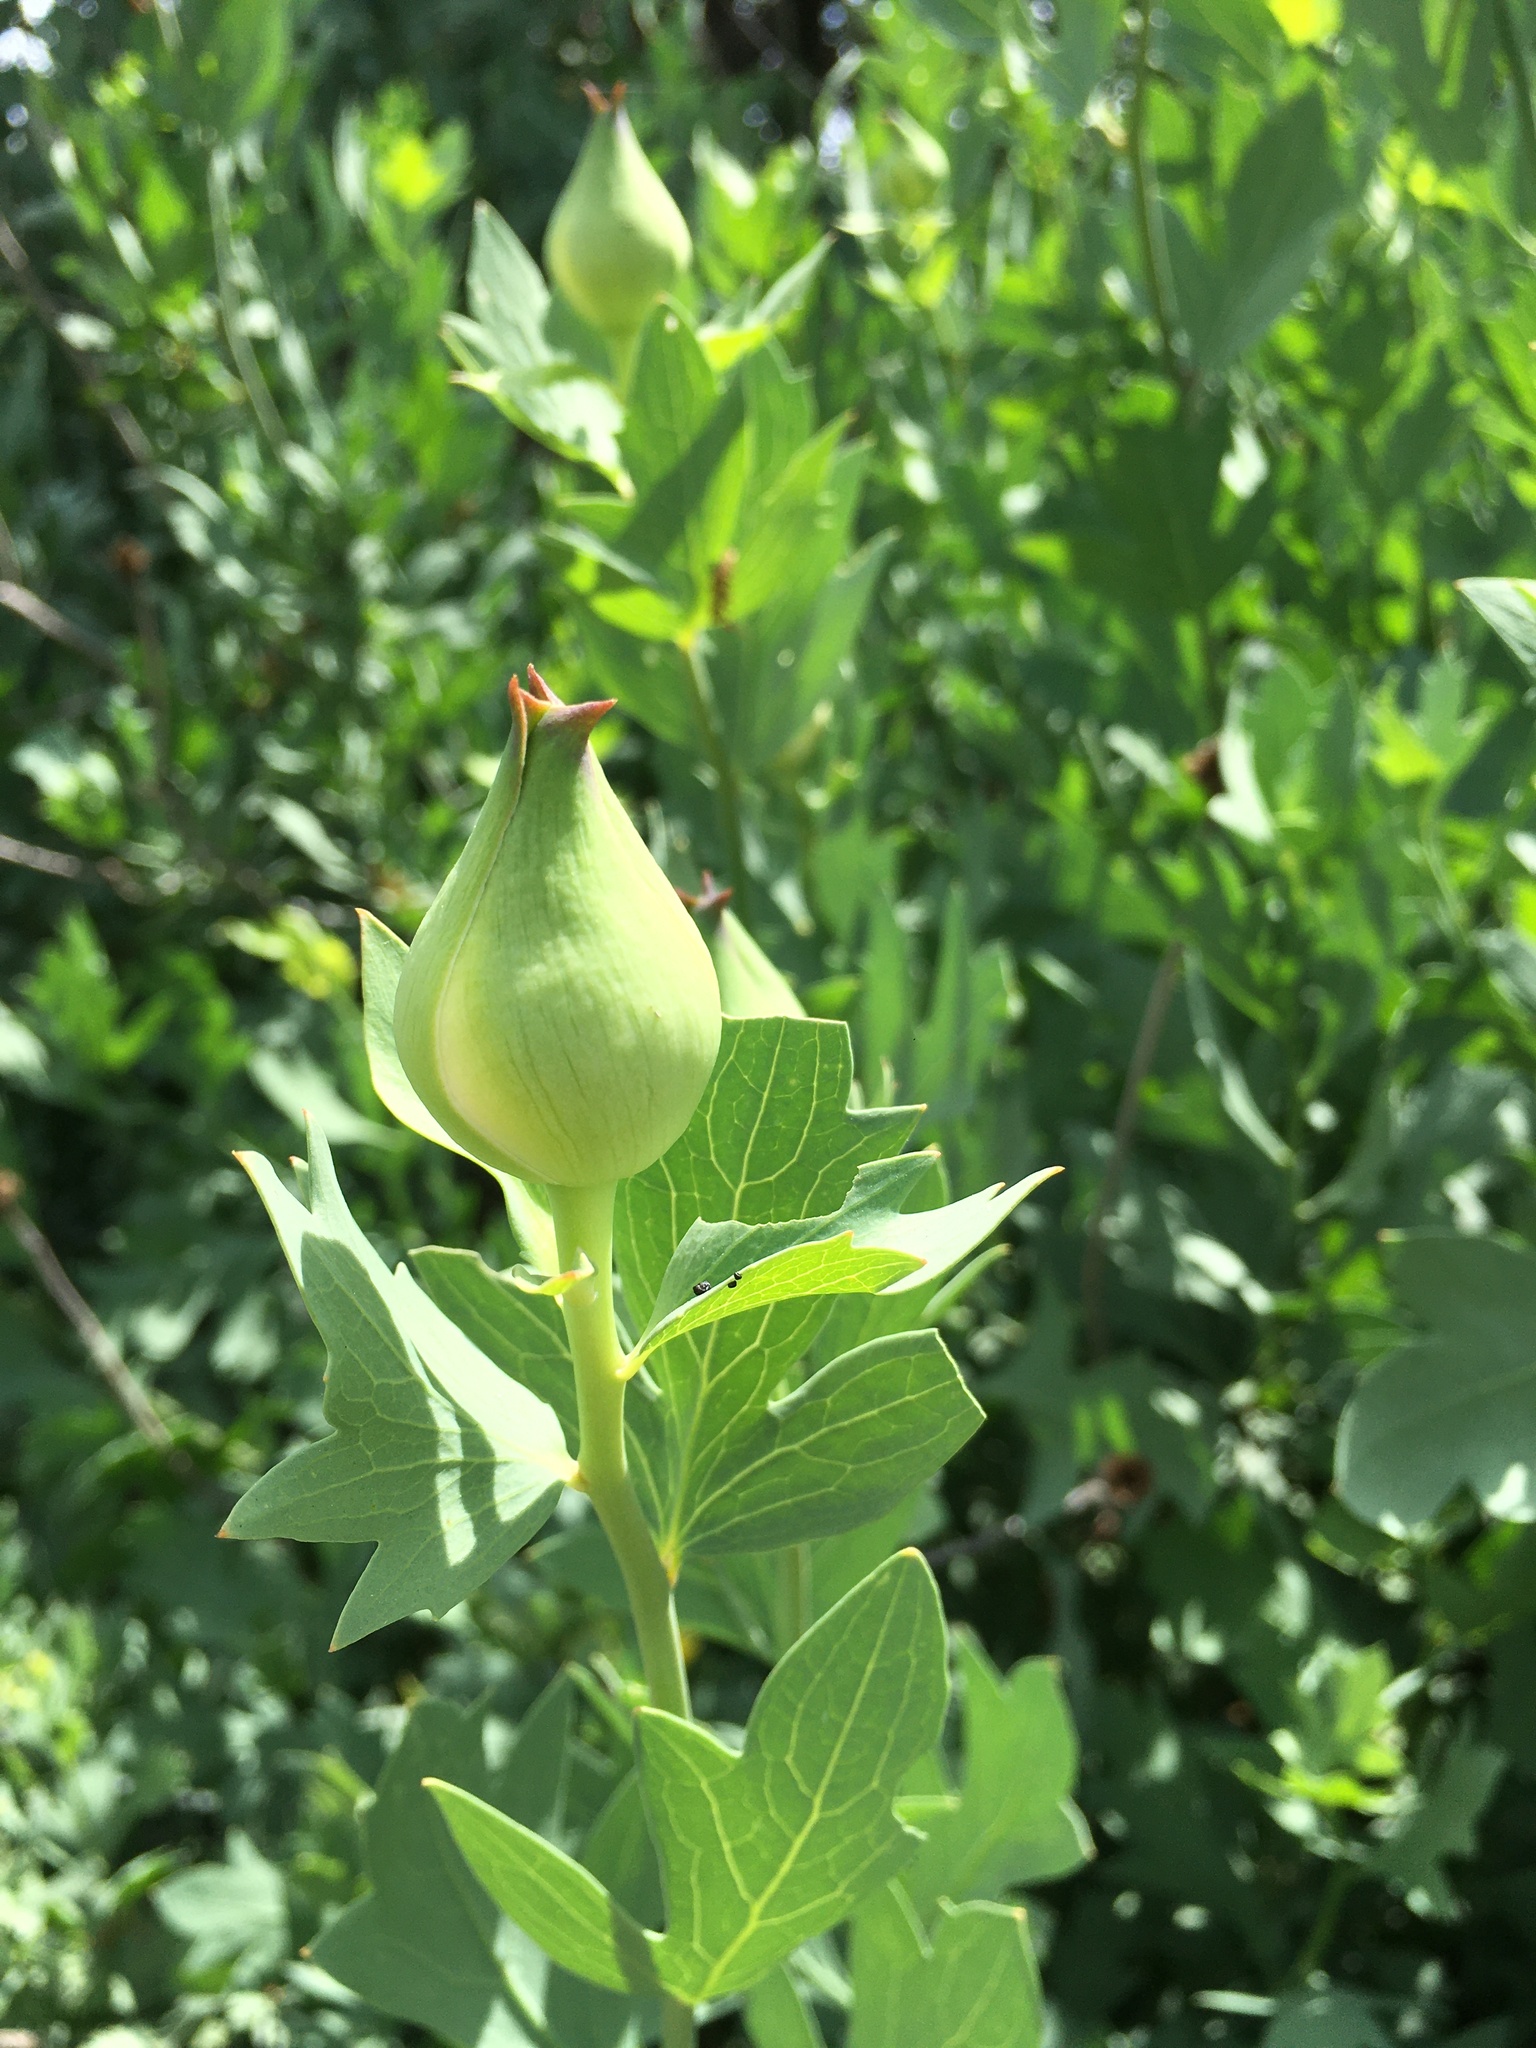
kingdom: Plantae
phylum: Tracheophyta
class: Magnoliopsida
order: Ranunculales
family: Papaveraceae
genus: Romneya
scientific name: Romneya coulteri
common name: California tree-poppy
